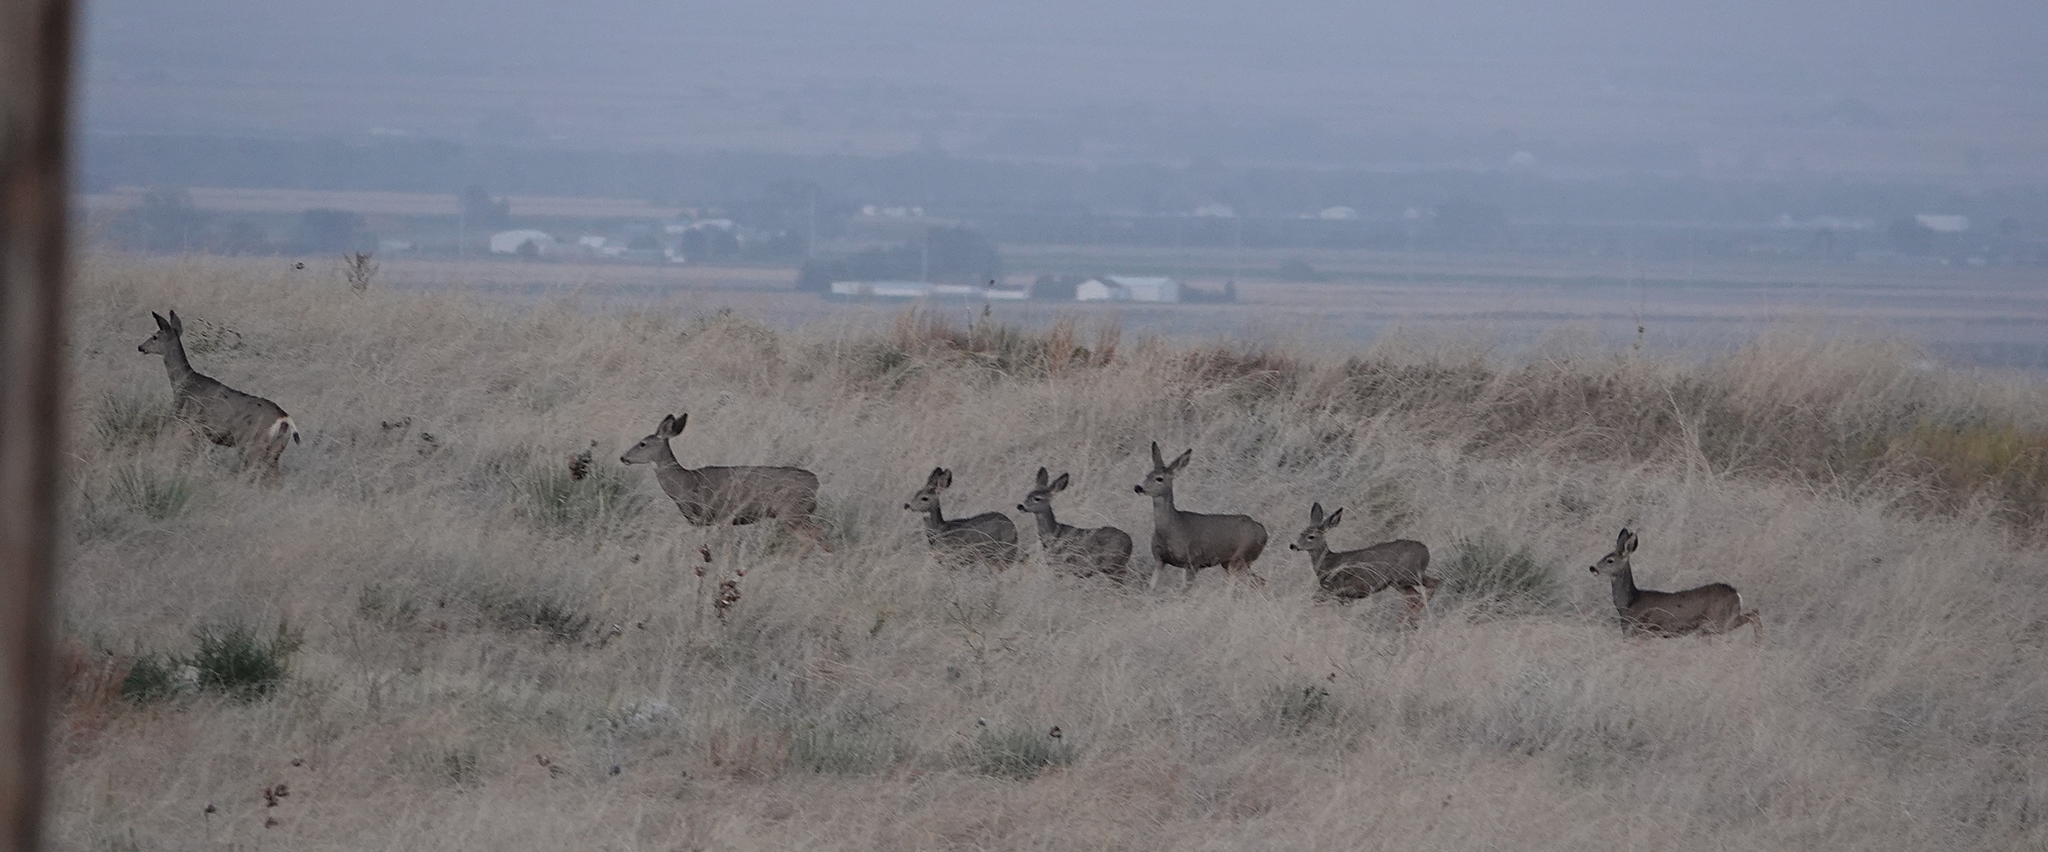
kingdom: Animalia
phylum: Chordata
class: Mammalia
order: Artiodactyla
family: Cervidae
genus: Odocoileus
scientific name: Odocoileus hemionus
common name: Mule deer
